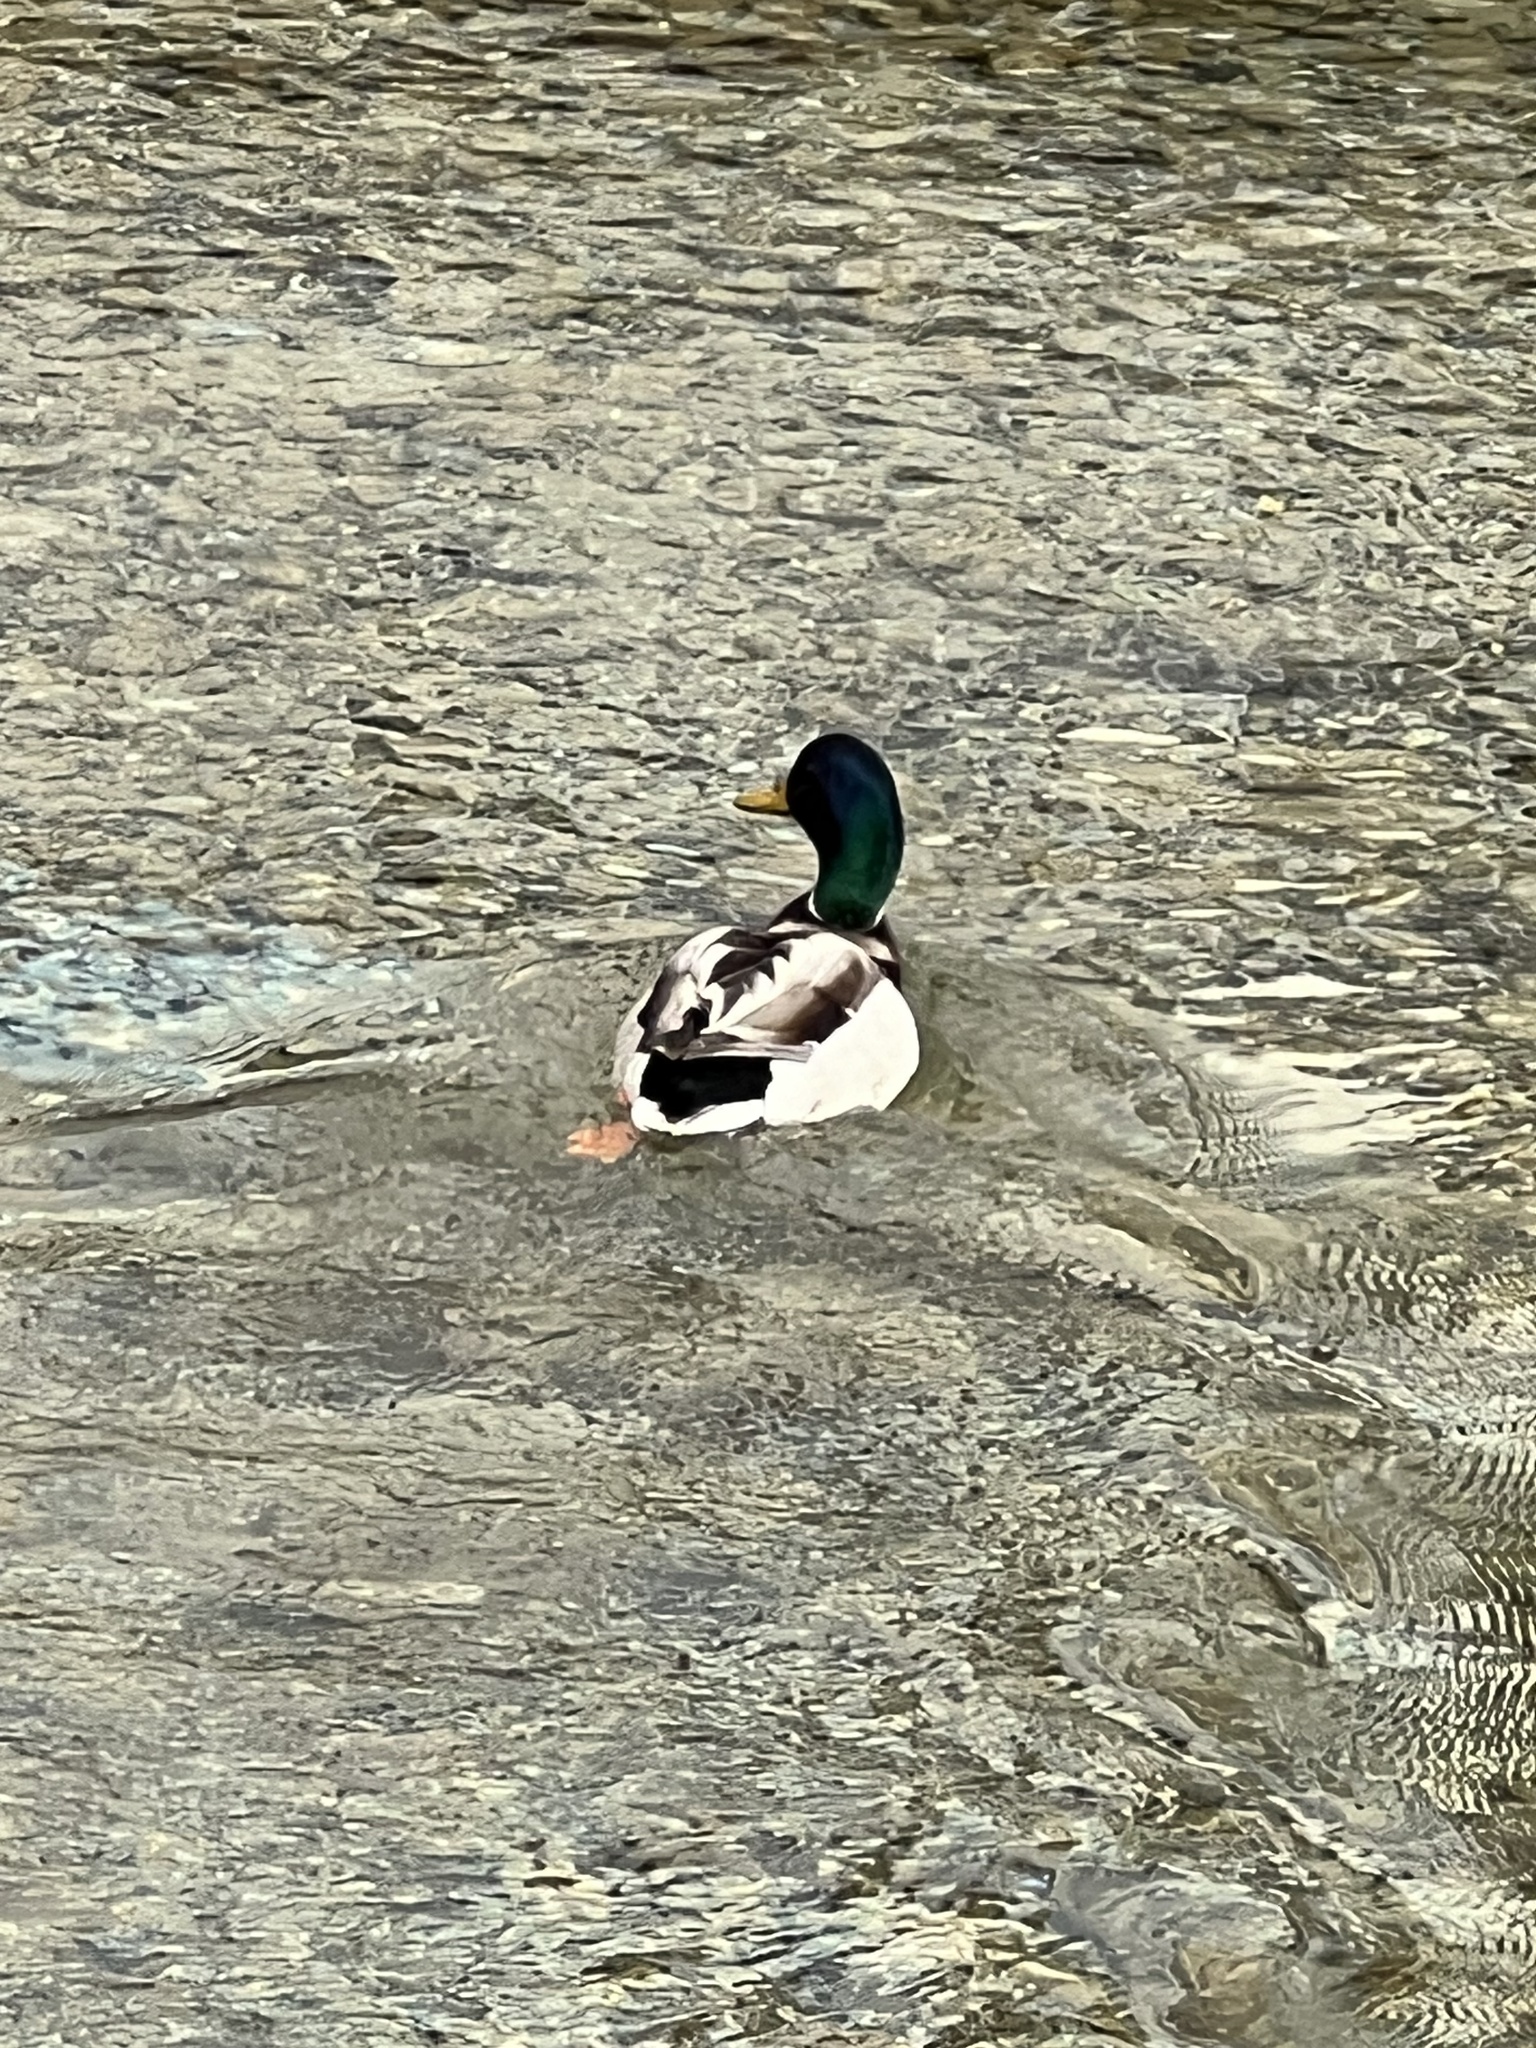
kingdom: Animalia
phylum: Chordata
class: Aves
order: Anseriformes
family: Anatidae
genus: Anas
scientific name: Anas platyrhynchos
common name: Mallard
